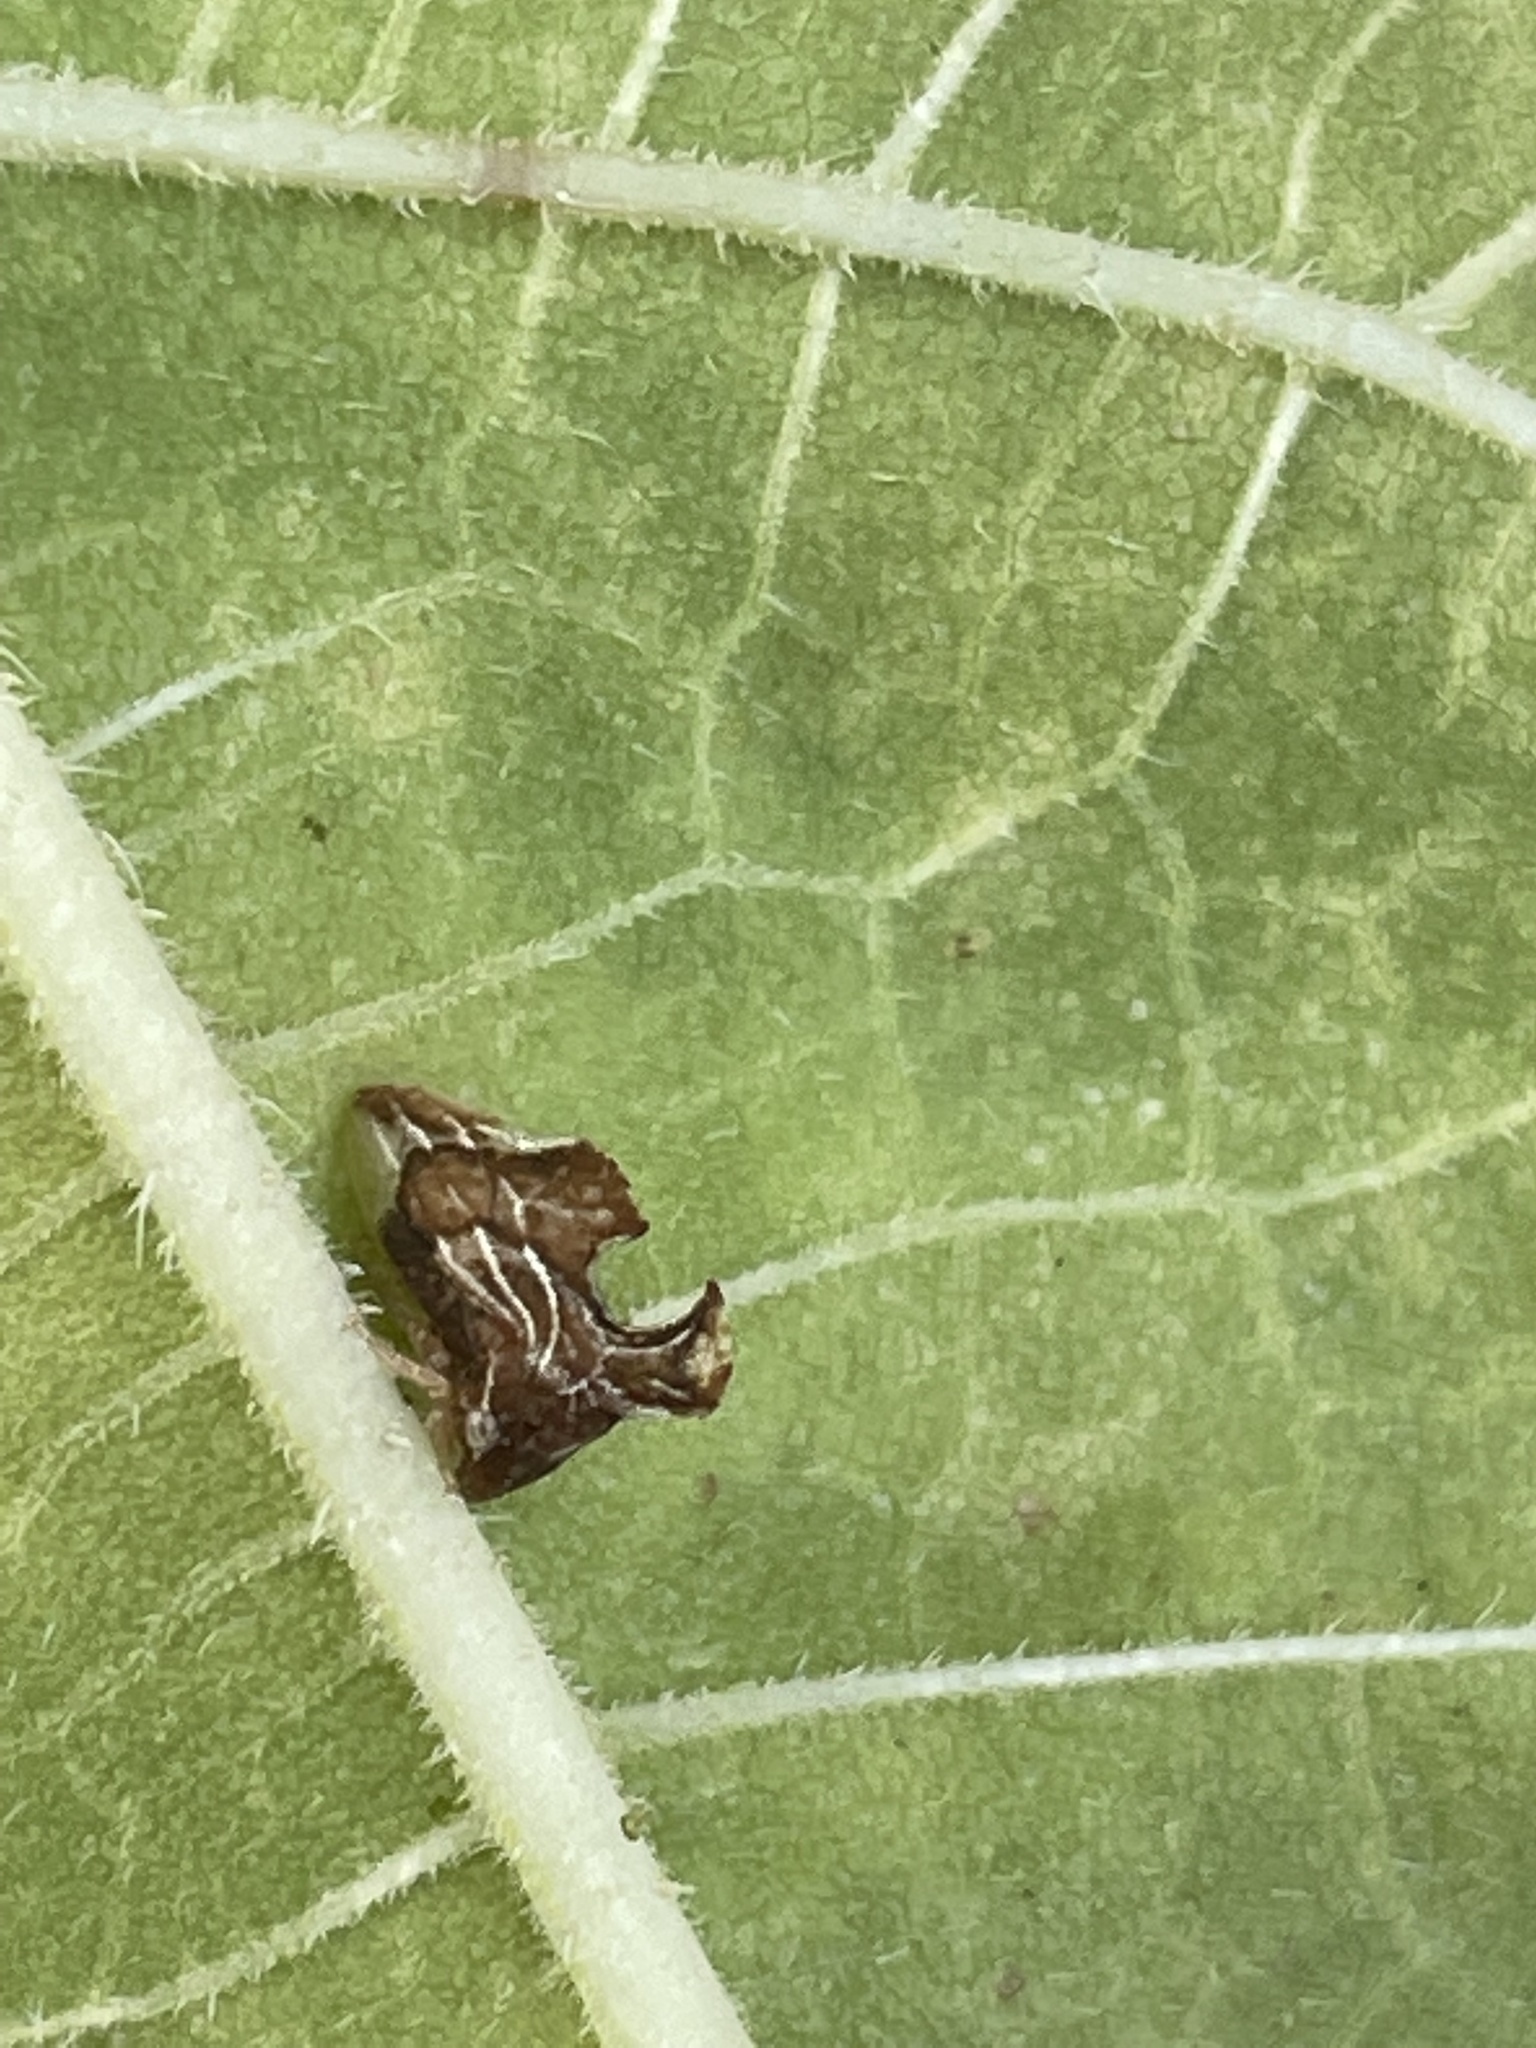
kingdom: Animalia
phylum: Arthropoda
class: Insecta
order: Hemiptera
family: Membracidae
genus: Entylia
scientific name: Entylia carinata
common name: Keeled treehopper
